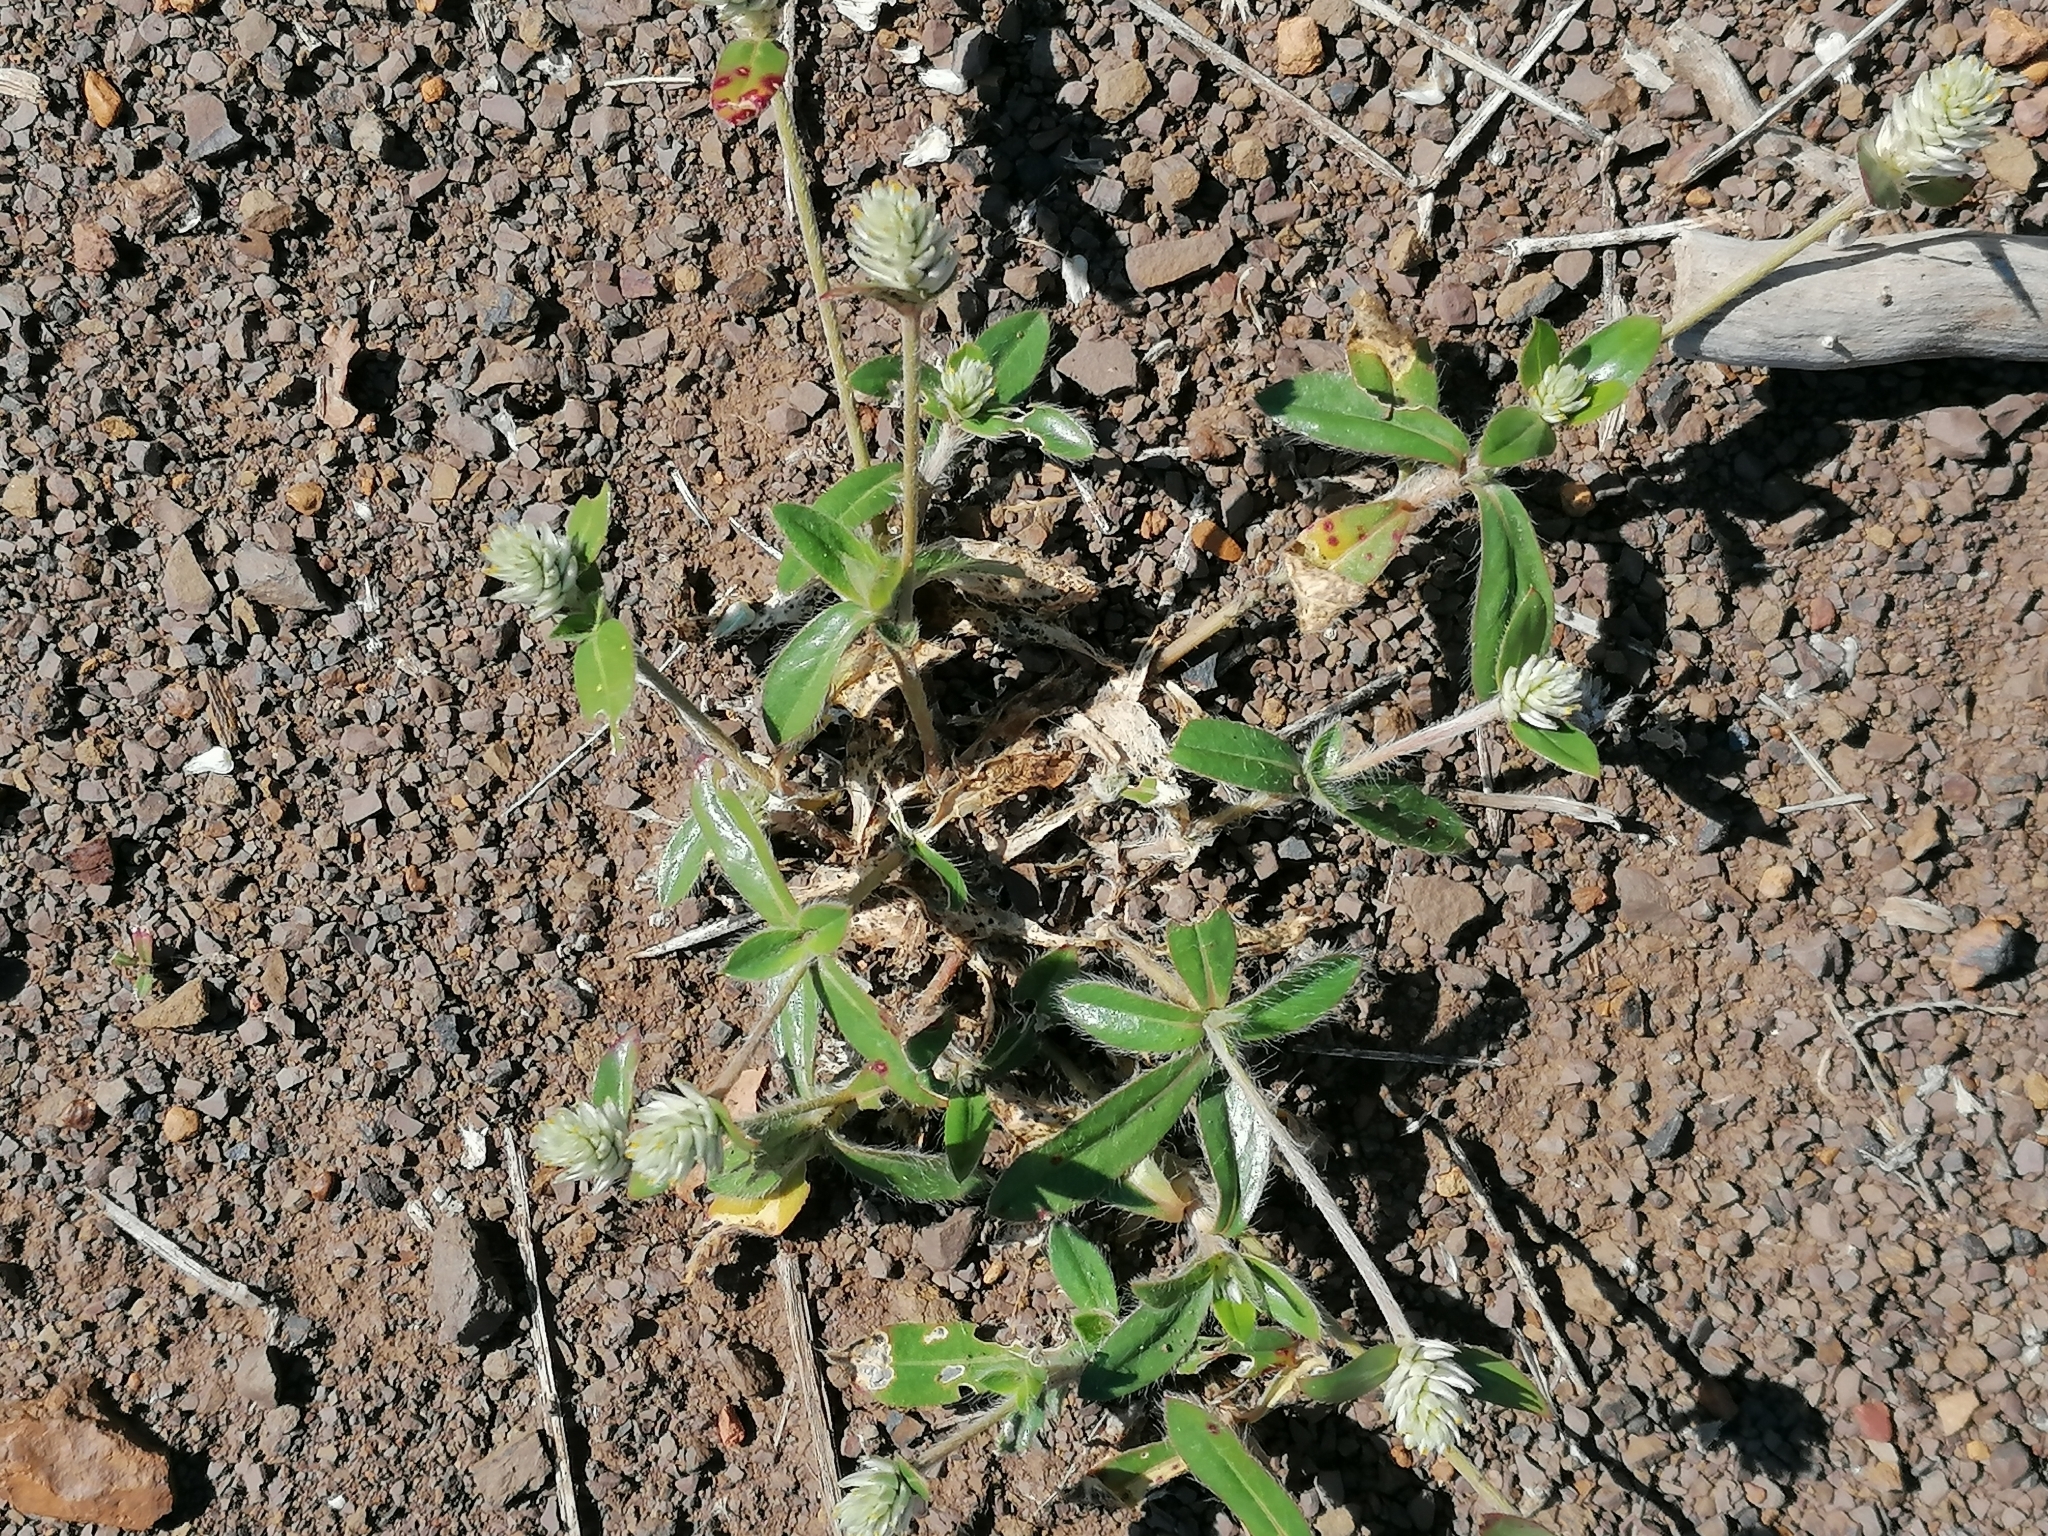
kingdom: Plantae
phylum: Tracheophyta
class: Magnoliopsida
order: Caryophyllales
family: Amaranthaceae
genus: Gomphrena
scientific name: Gomphrena celosioides
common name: Gomphrena-weed
